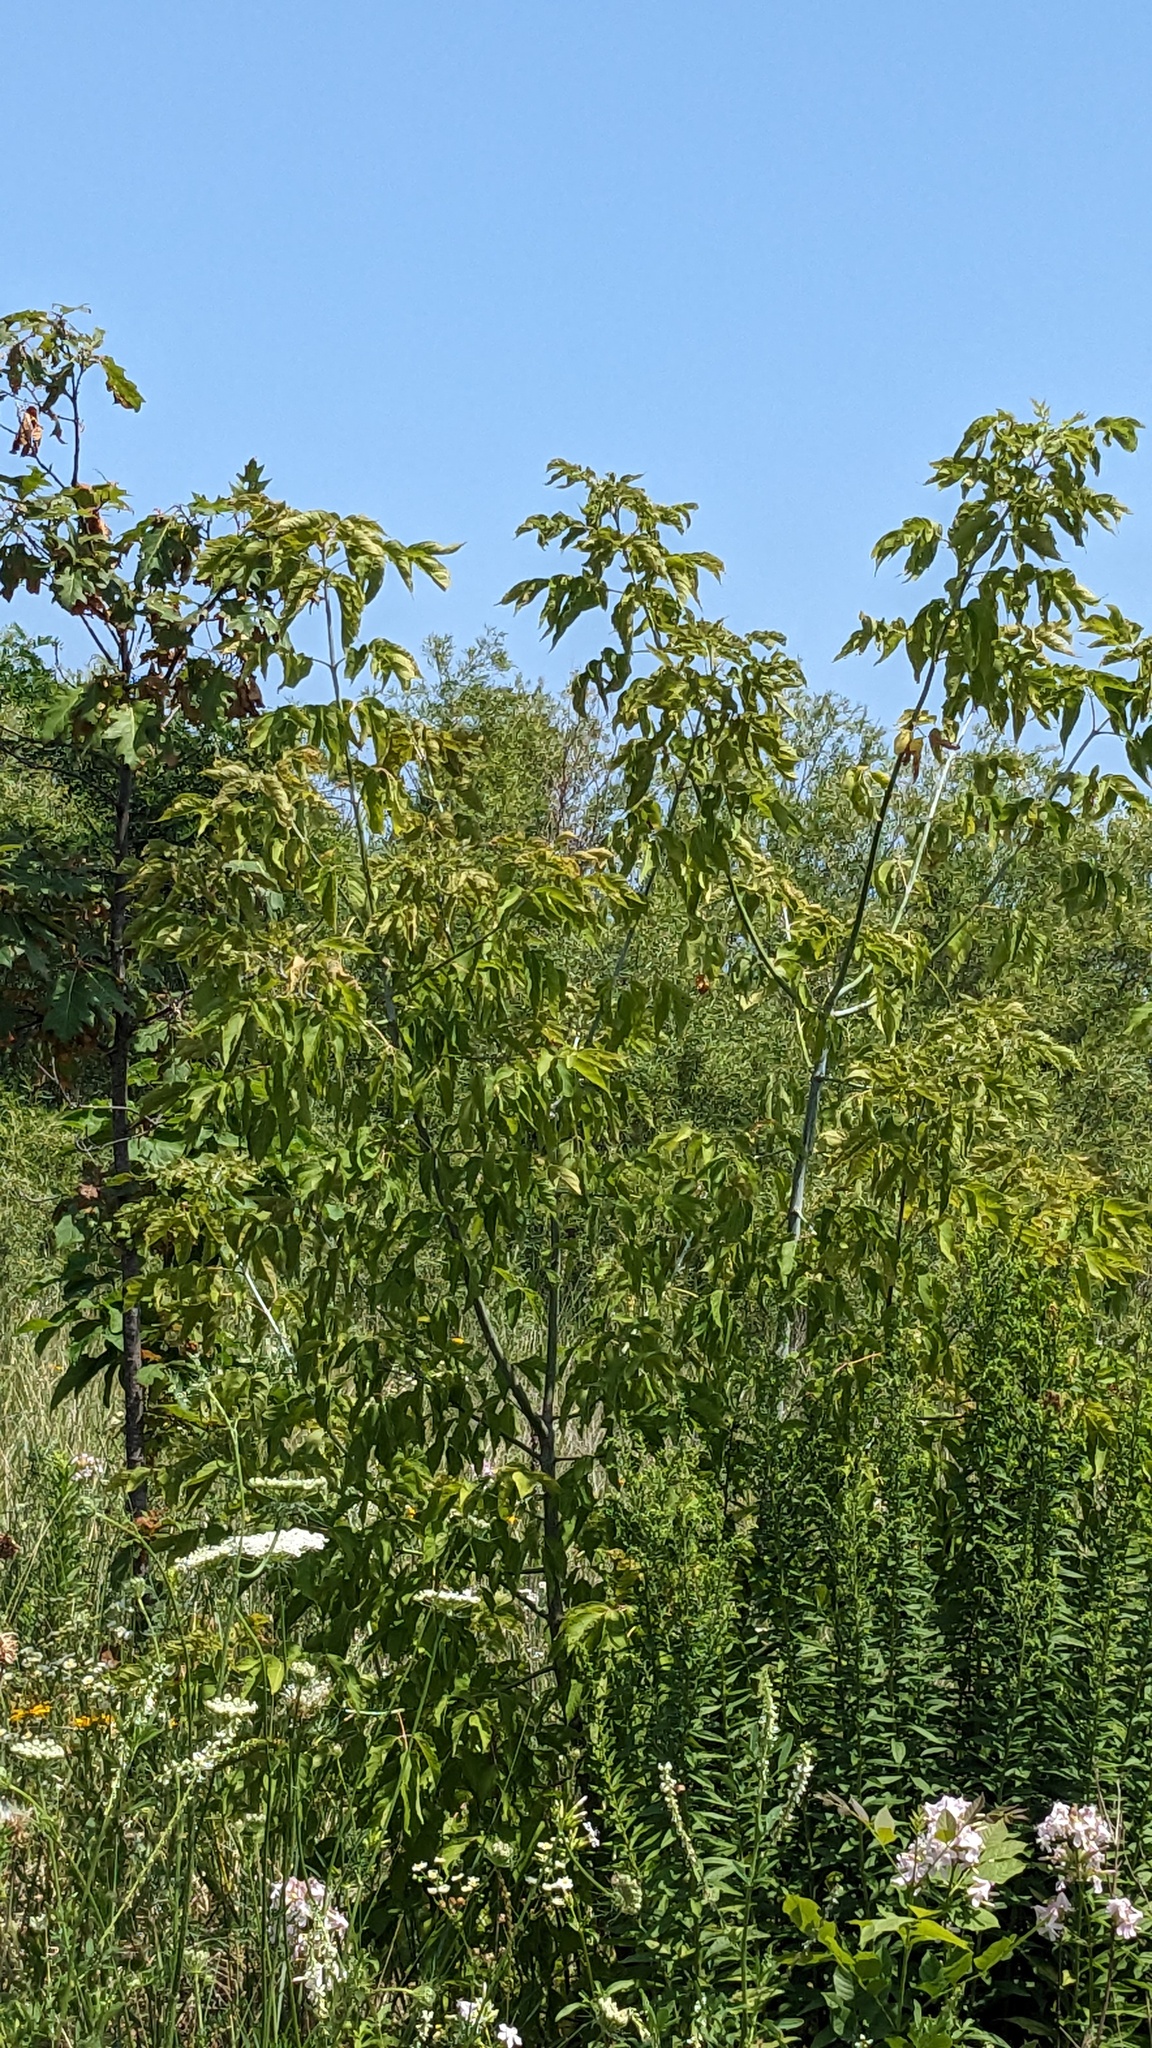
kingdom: Plantae
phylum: Tracheophyta
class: Magnoliopsida
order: Sapindales
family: Sapindaceae
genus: Acer
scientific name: Acer negundo
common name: Ashleaf maple
